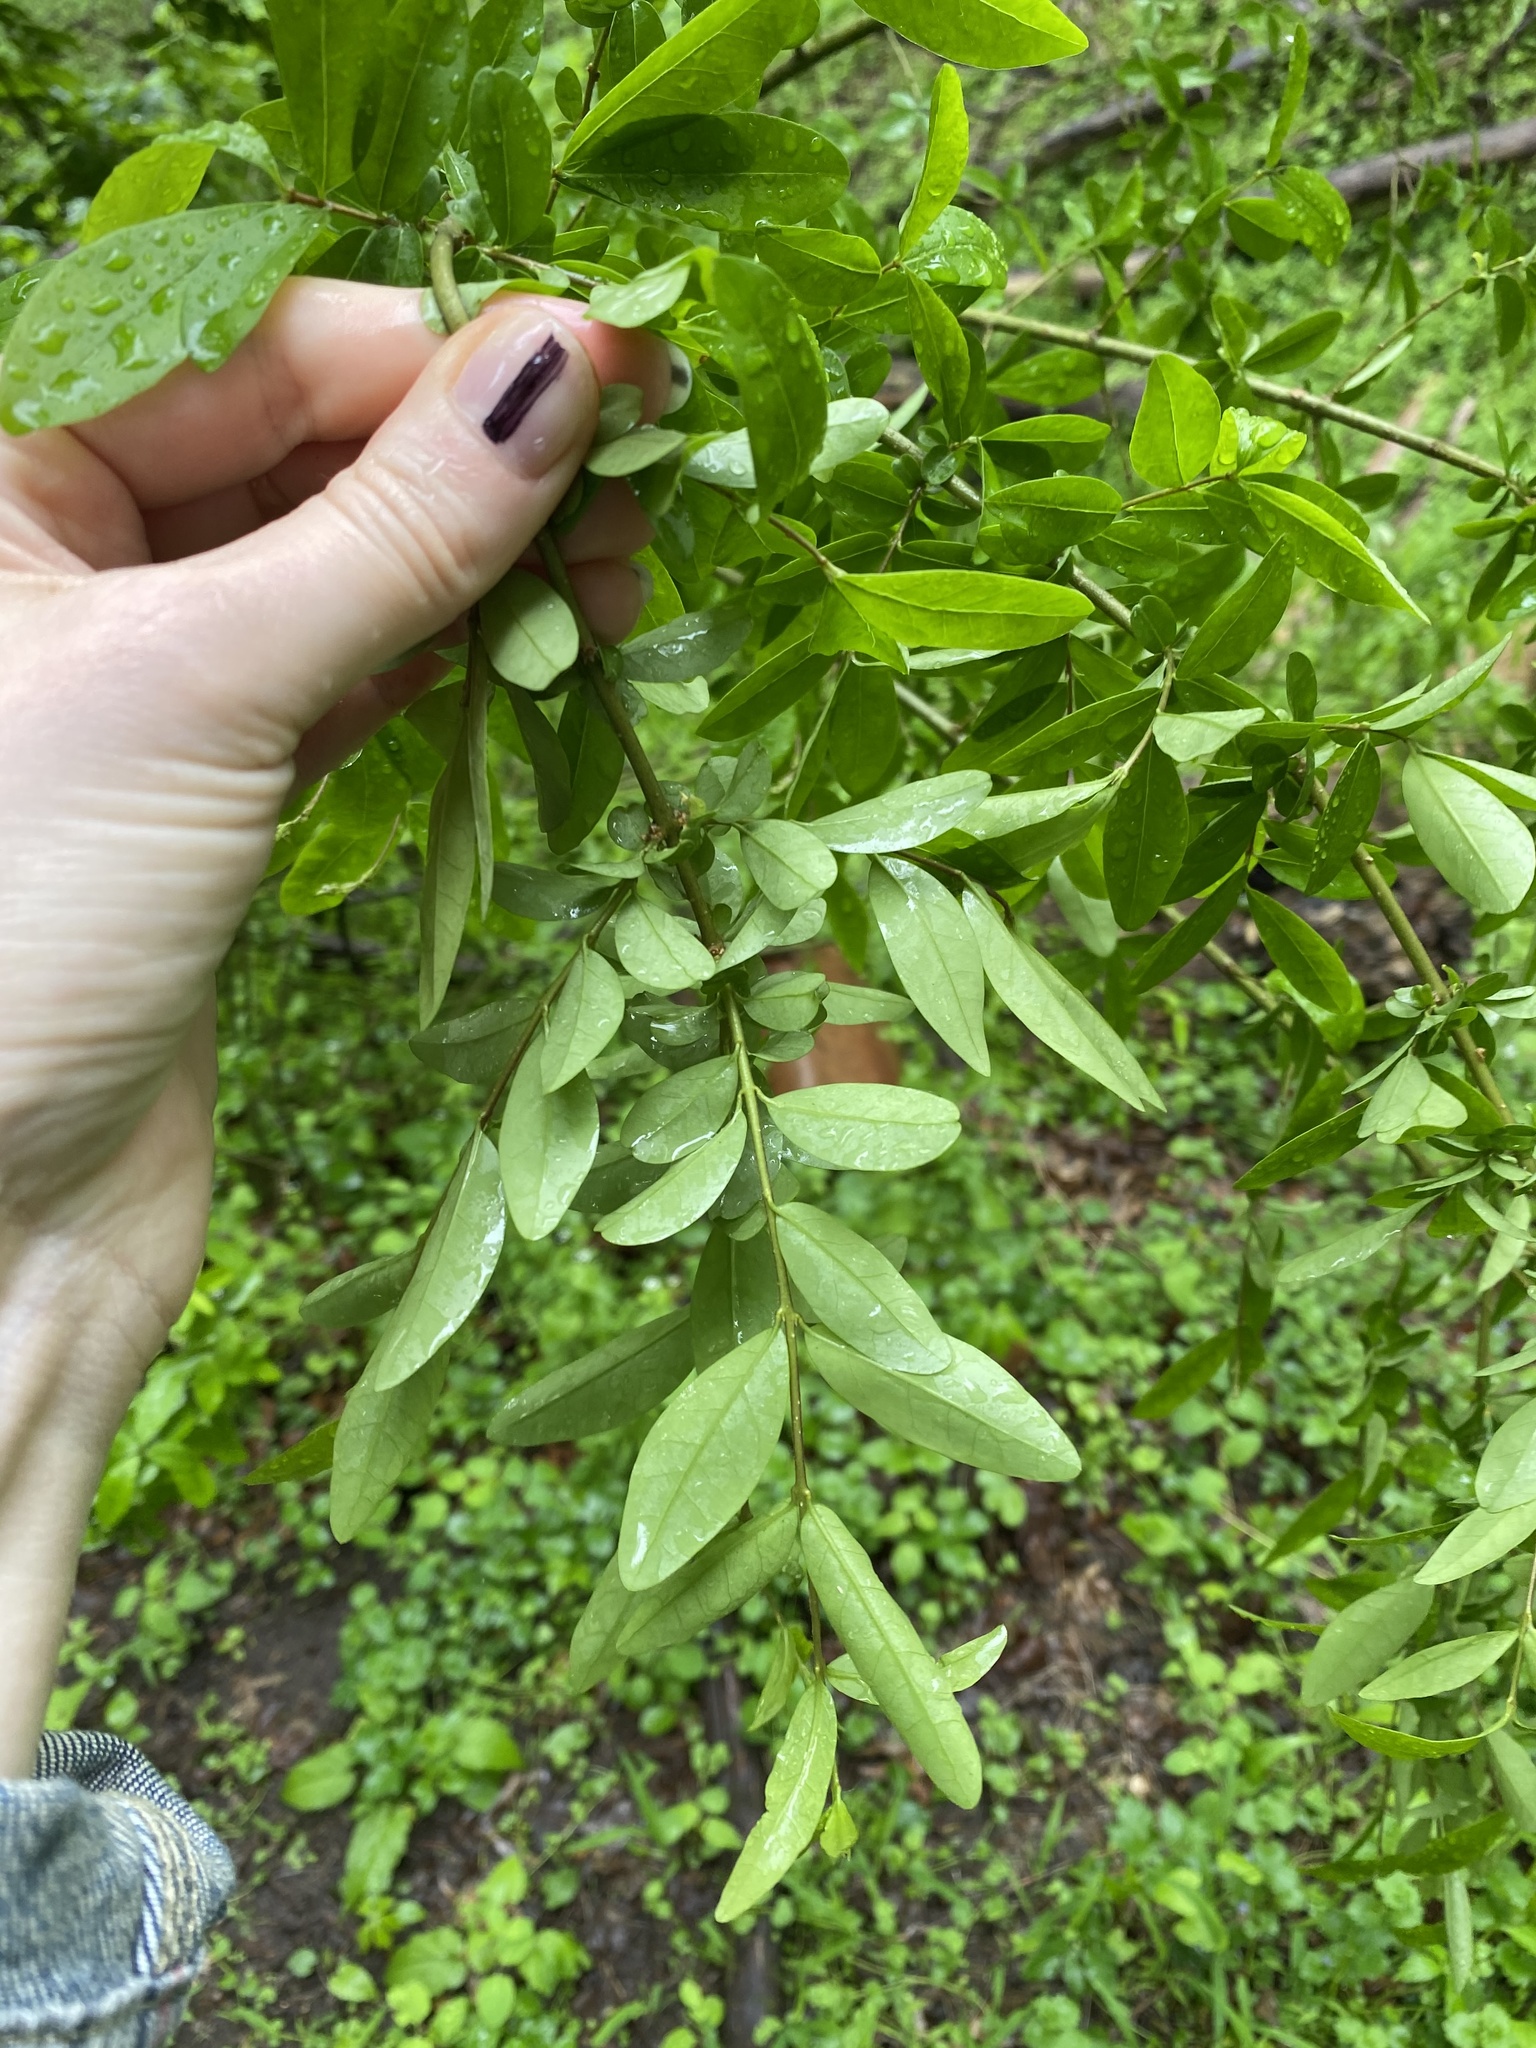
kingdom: Plantae
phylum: Tracheophyta
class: Magnoliopsida
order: Lamiales
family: Oleaceae
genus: Ligustrum
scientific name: Ligustrum obtusifolium
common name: Border privet
